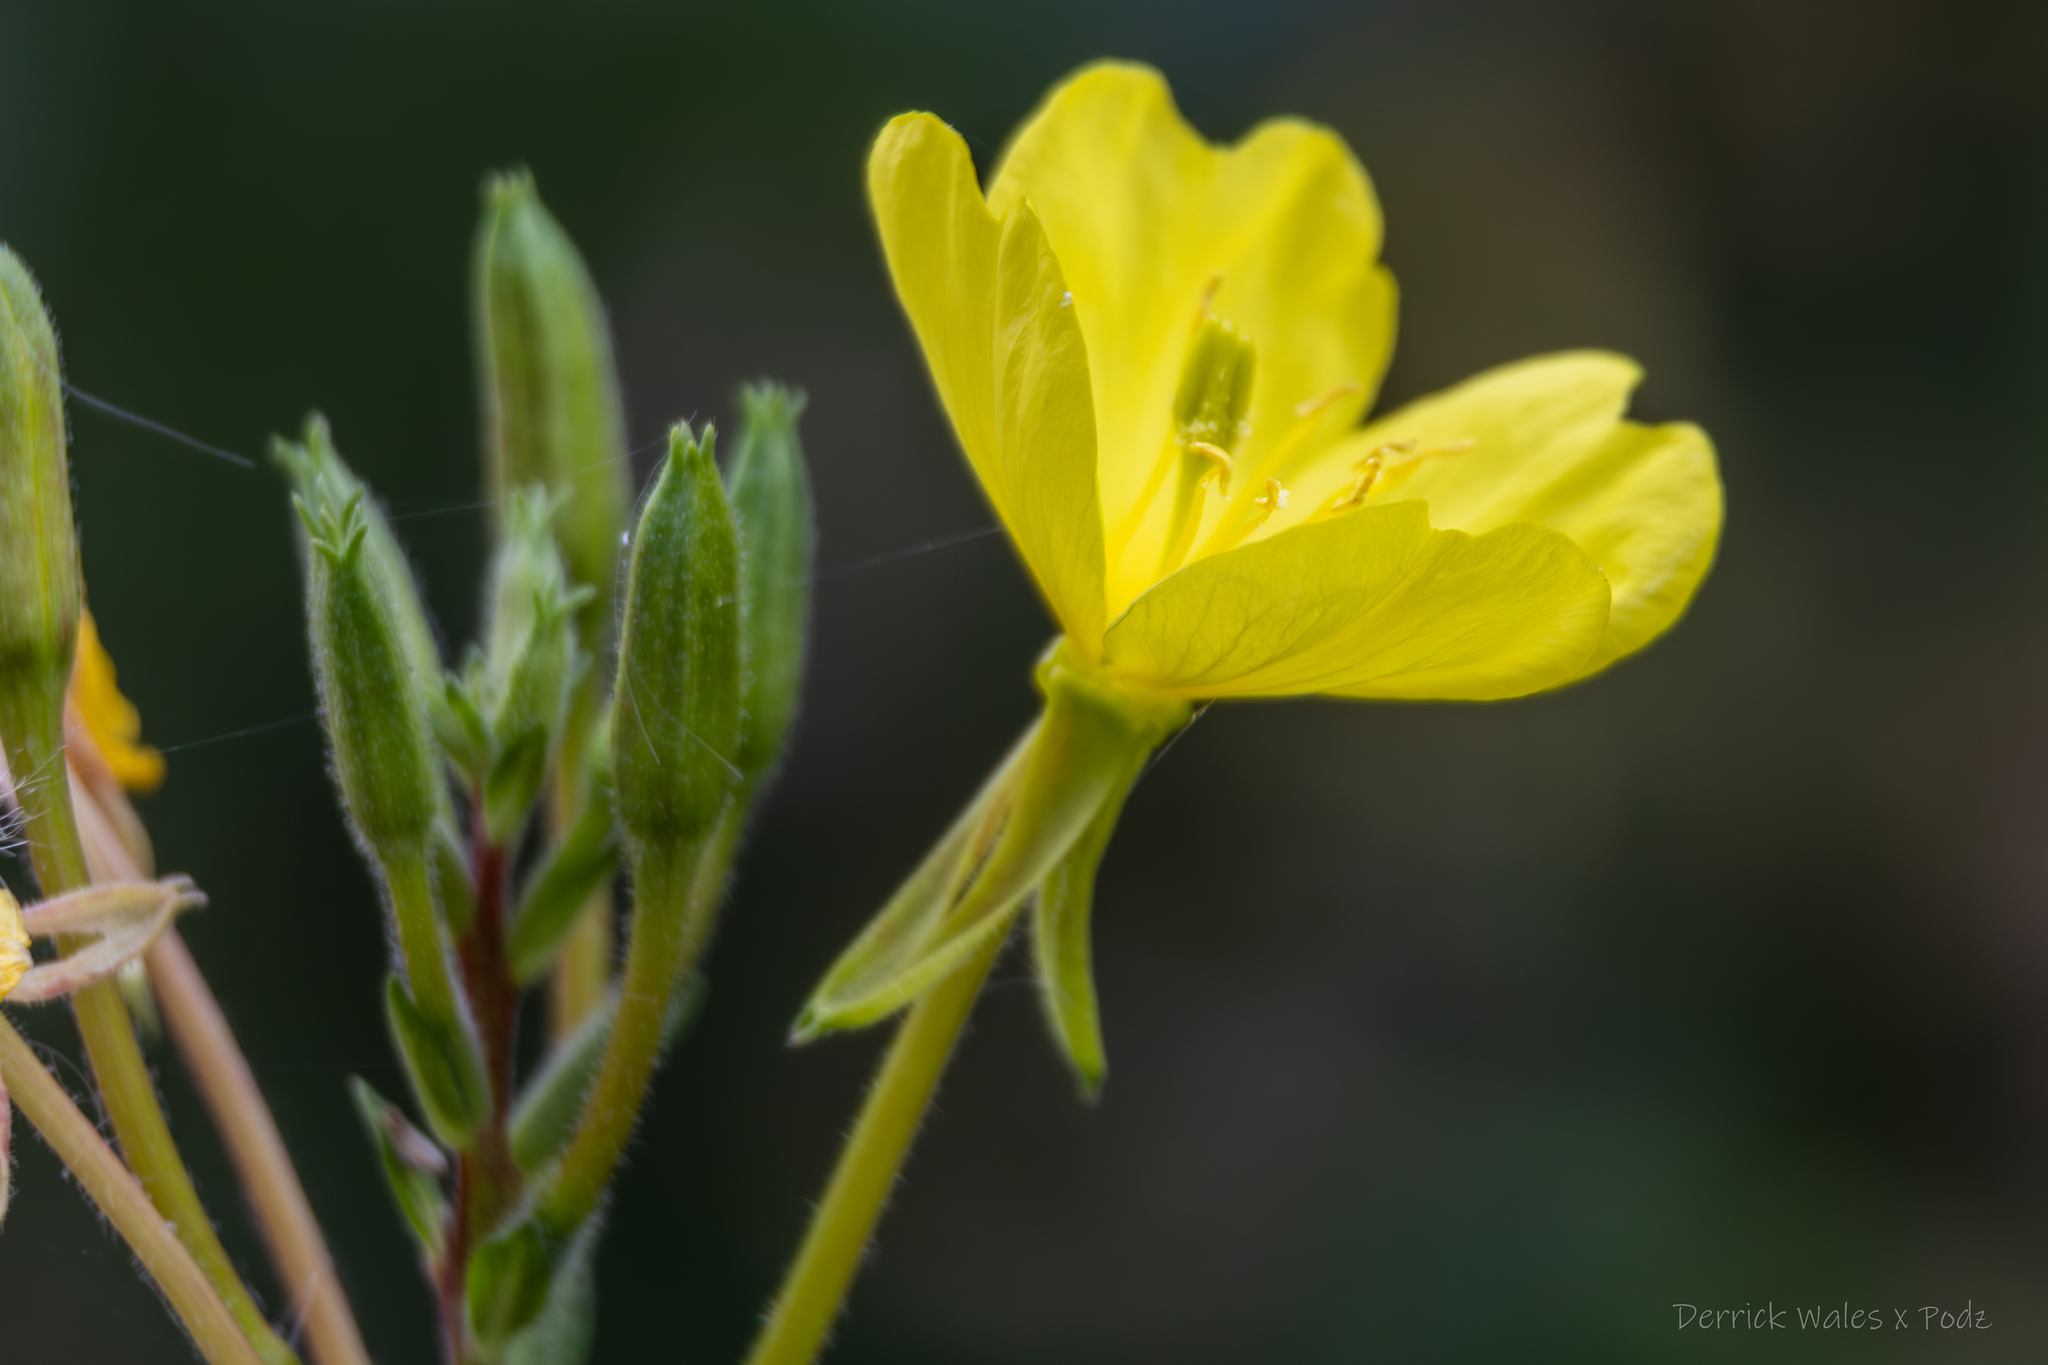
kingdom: Plantae
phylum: Tracheophyta
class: Magnoliopsida
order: Myrtales
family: Onagraceae
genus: Oenothera
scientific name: Oenothera biennis
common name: Common evening-primrose
